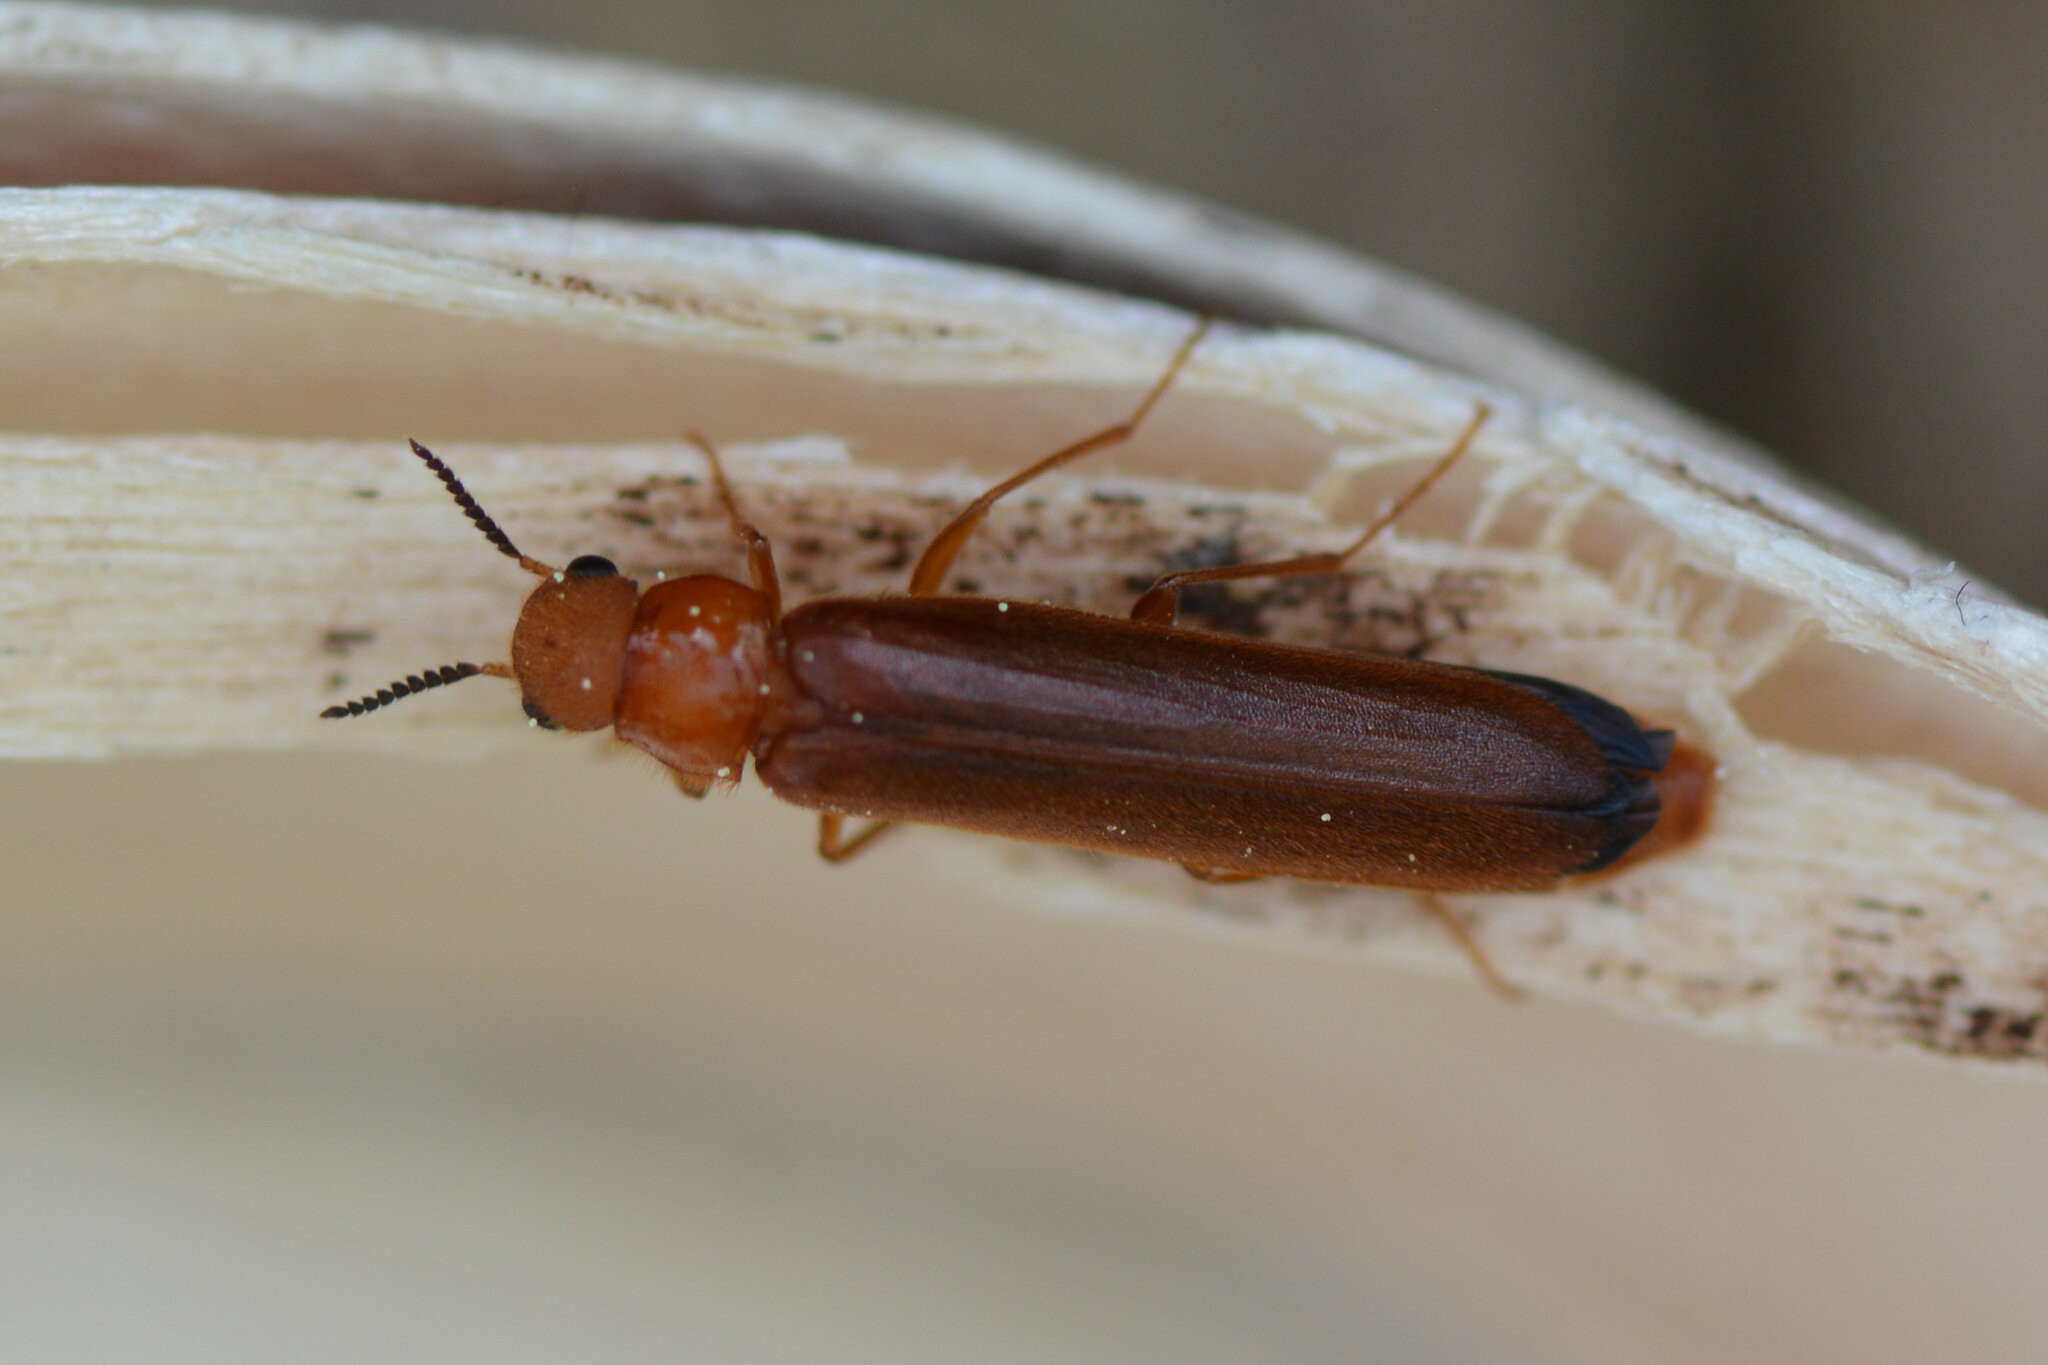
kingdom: Animalia
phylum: Arthropoda
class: Insecta
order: Coleoptera
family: Lymexylidae
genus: Hylecoetus
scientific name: Hylecoetus dermestoides
